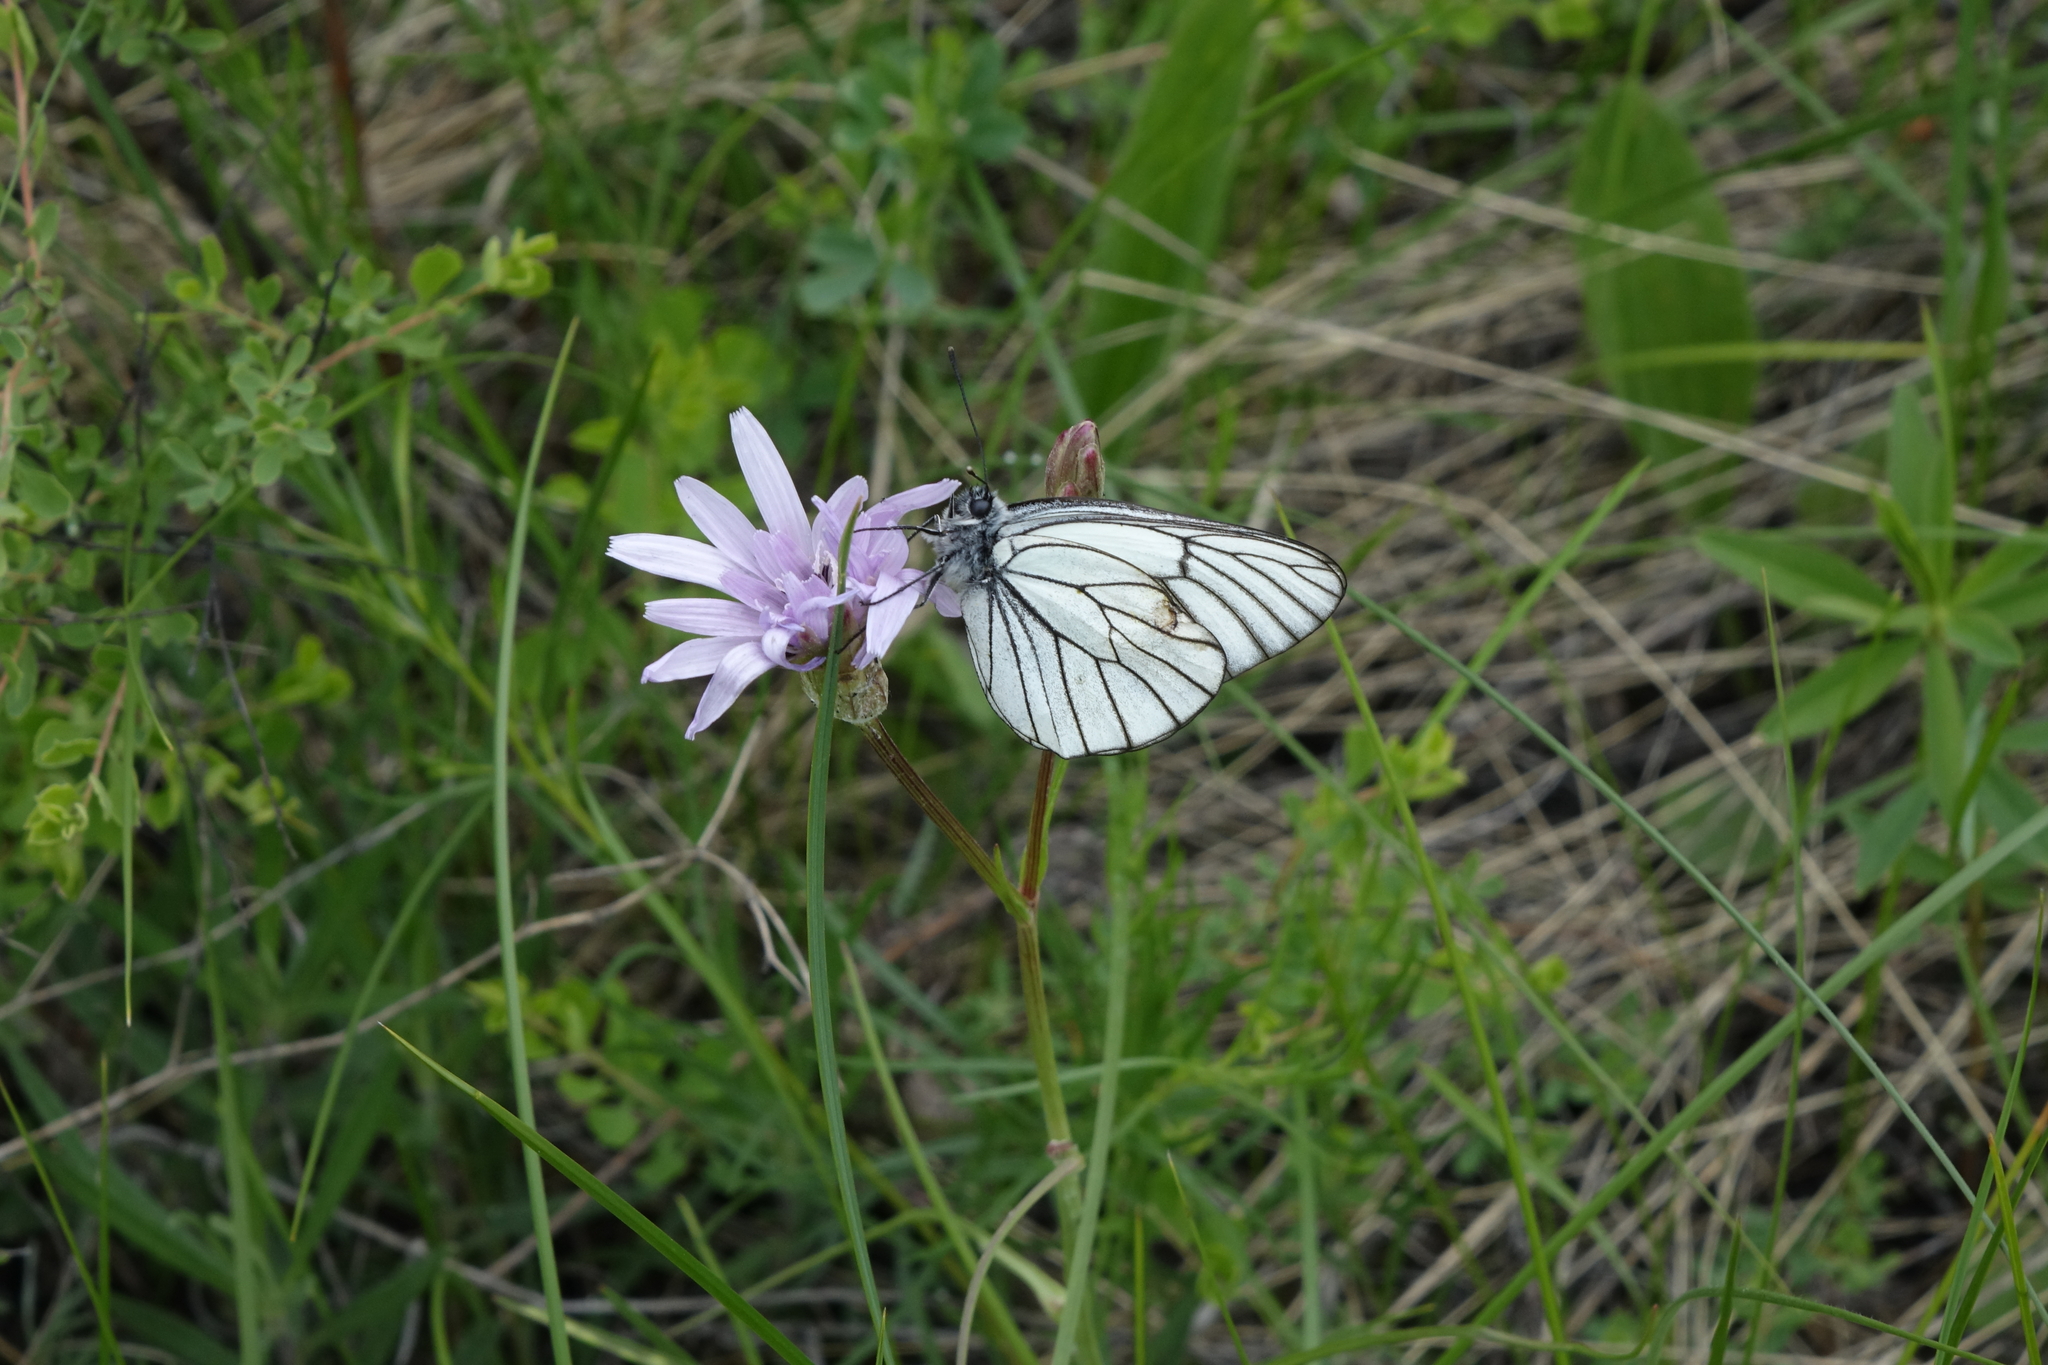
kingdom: Animalia
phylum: Arthropoda
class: Insecta
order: Lepidoptera
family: Pieridae
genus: Aporia
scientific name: Aporia crataegi
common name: Black-veined white
